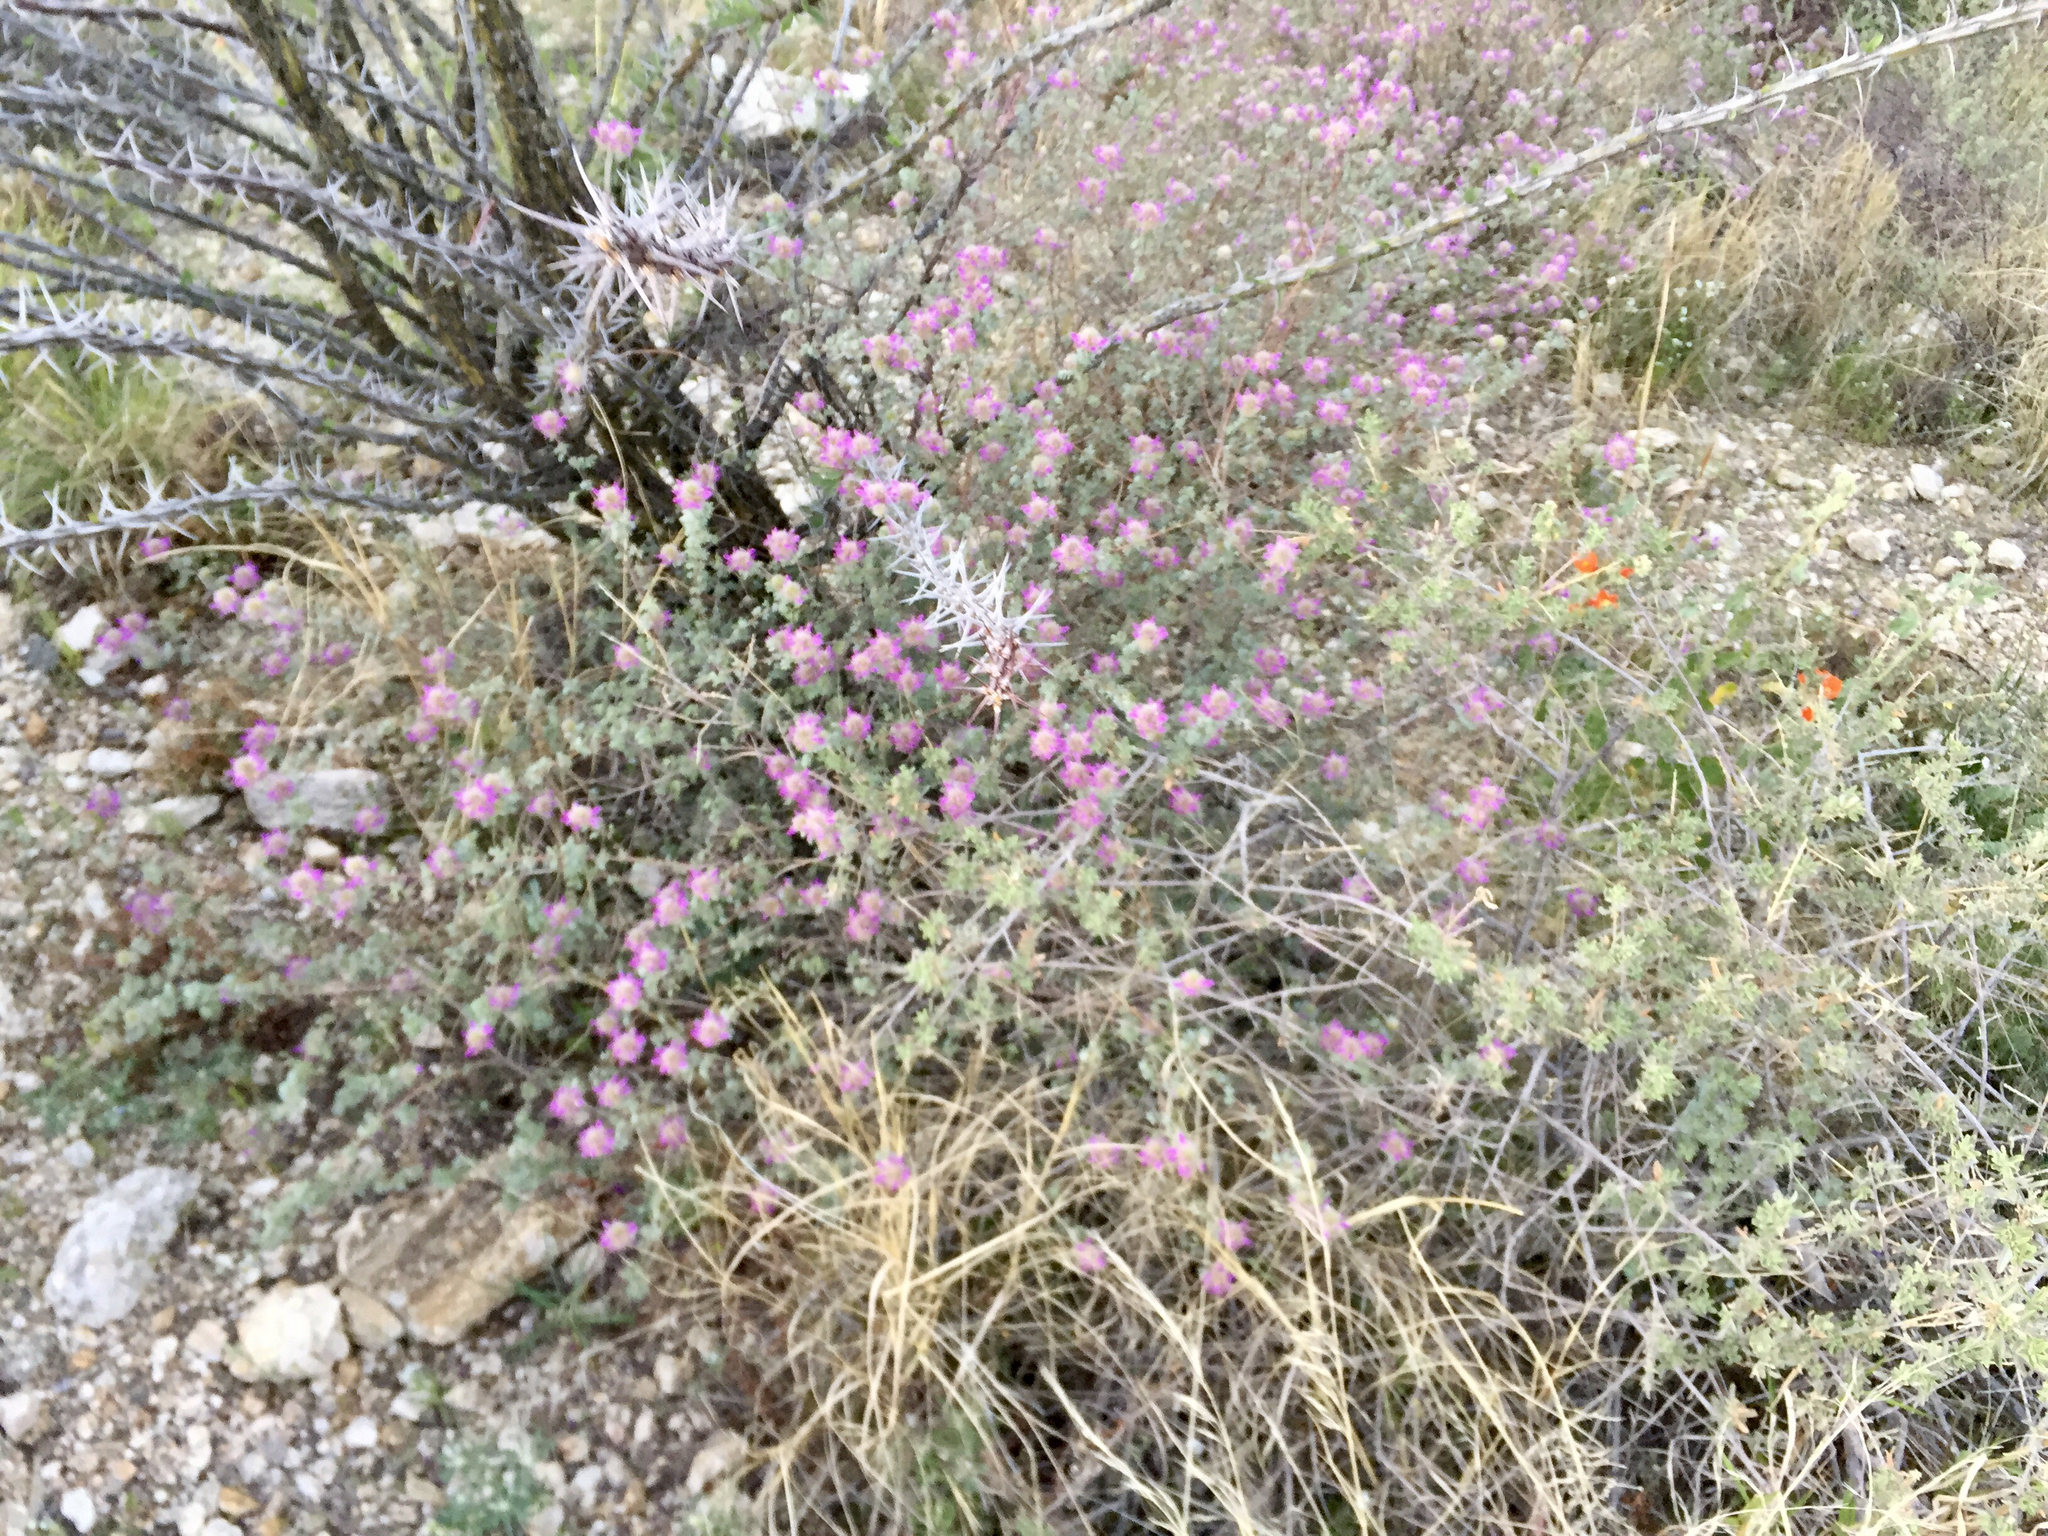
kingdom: Plantae
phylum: Tracheophyta
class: Magnoliopsida
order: Fabales
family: Fabaceae
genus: Dalea
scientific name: Dalea pulchra
